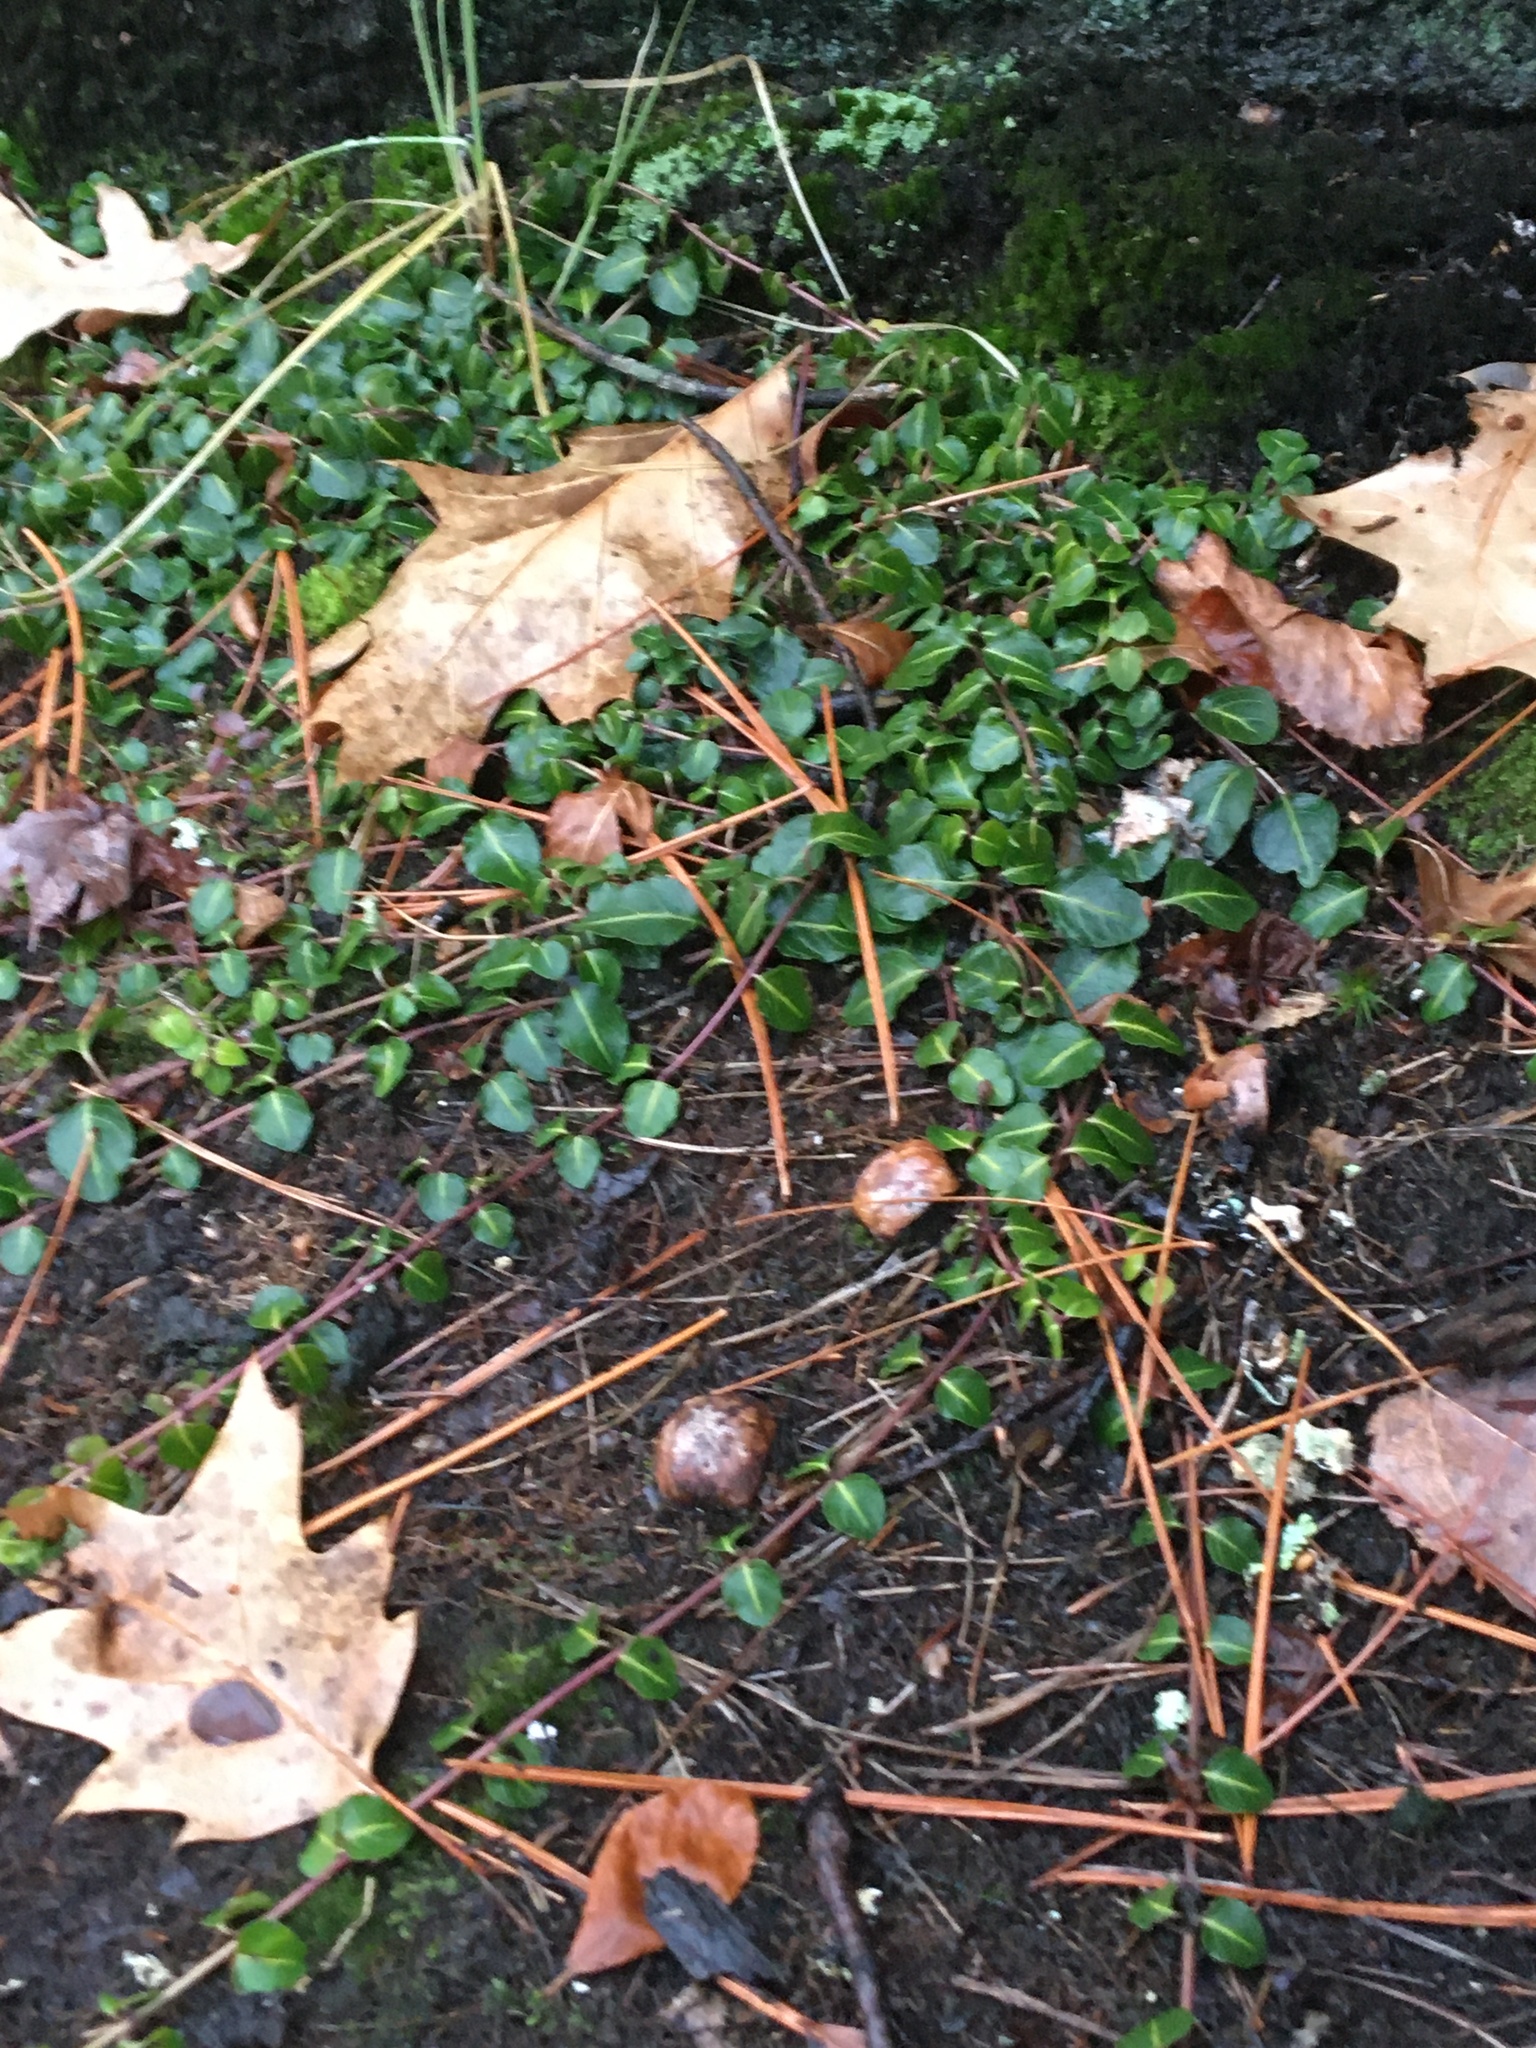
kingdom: Plantae
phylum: Tracheophyta
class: Magnoliopsida
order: Gentianales
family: Rubiaceae
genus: Mitchella
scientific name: Mitchella repens
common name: Partridge-berry
